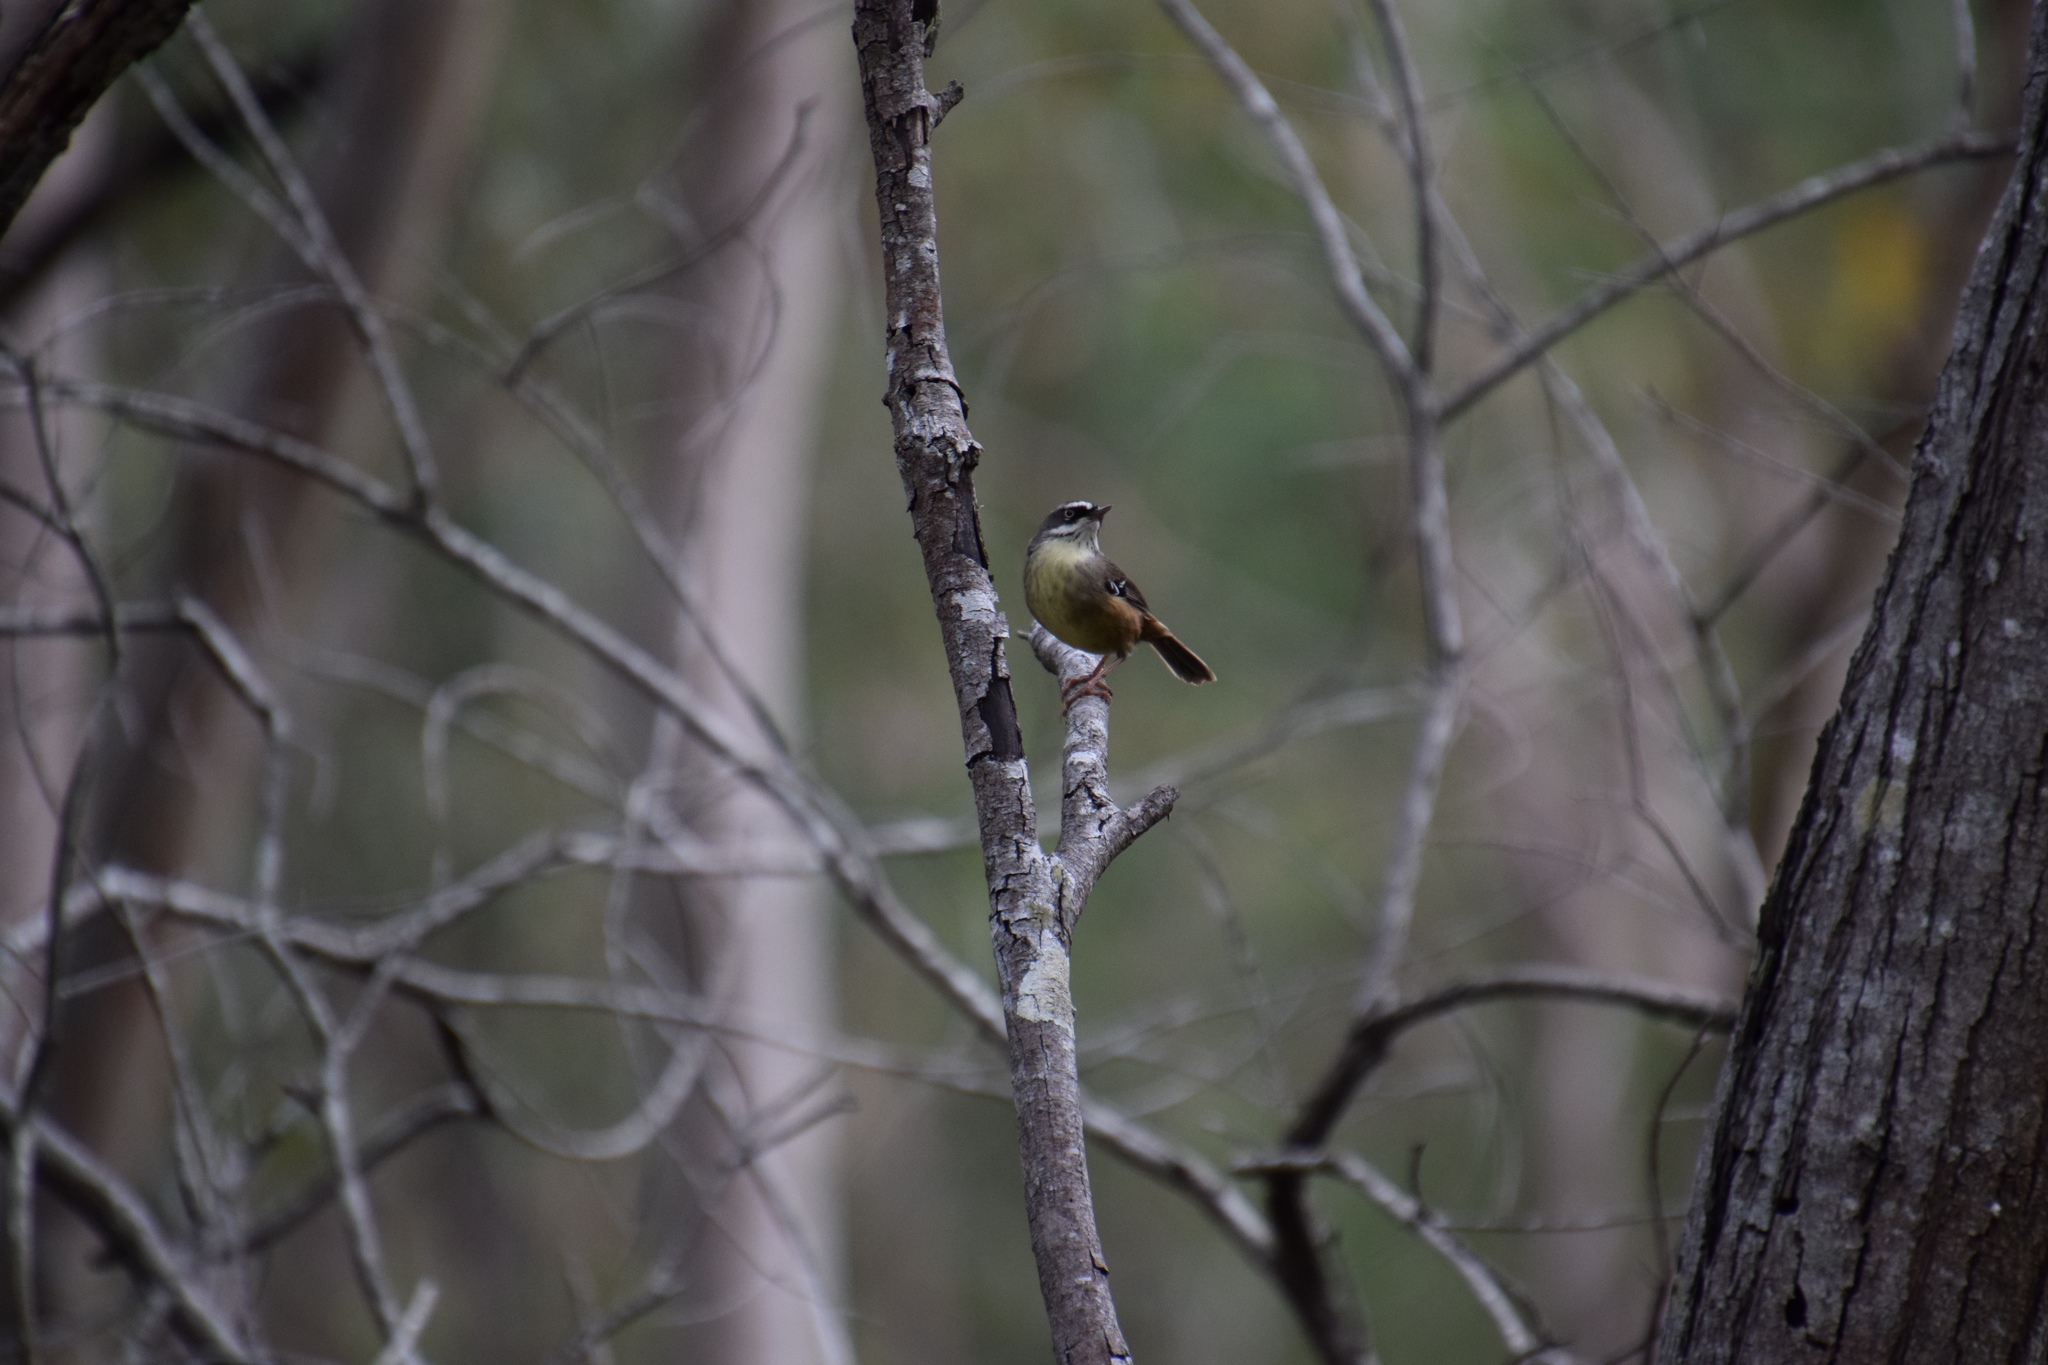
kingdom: Animalia
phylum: Chordata
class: Aves
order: Passeriformes
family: Acanthizidae
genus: Sericornis
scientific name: Sericornis frontalis
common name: White-browed scrubwren
